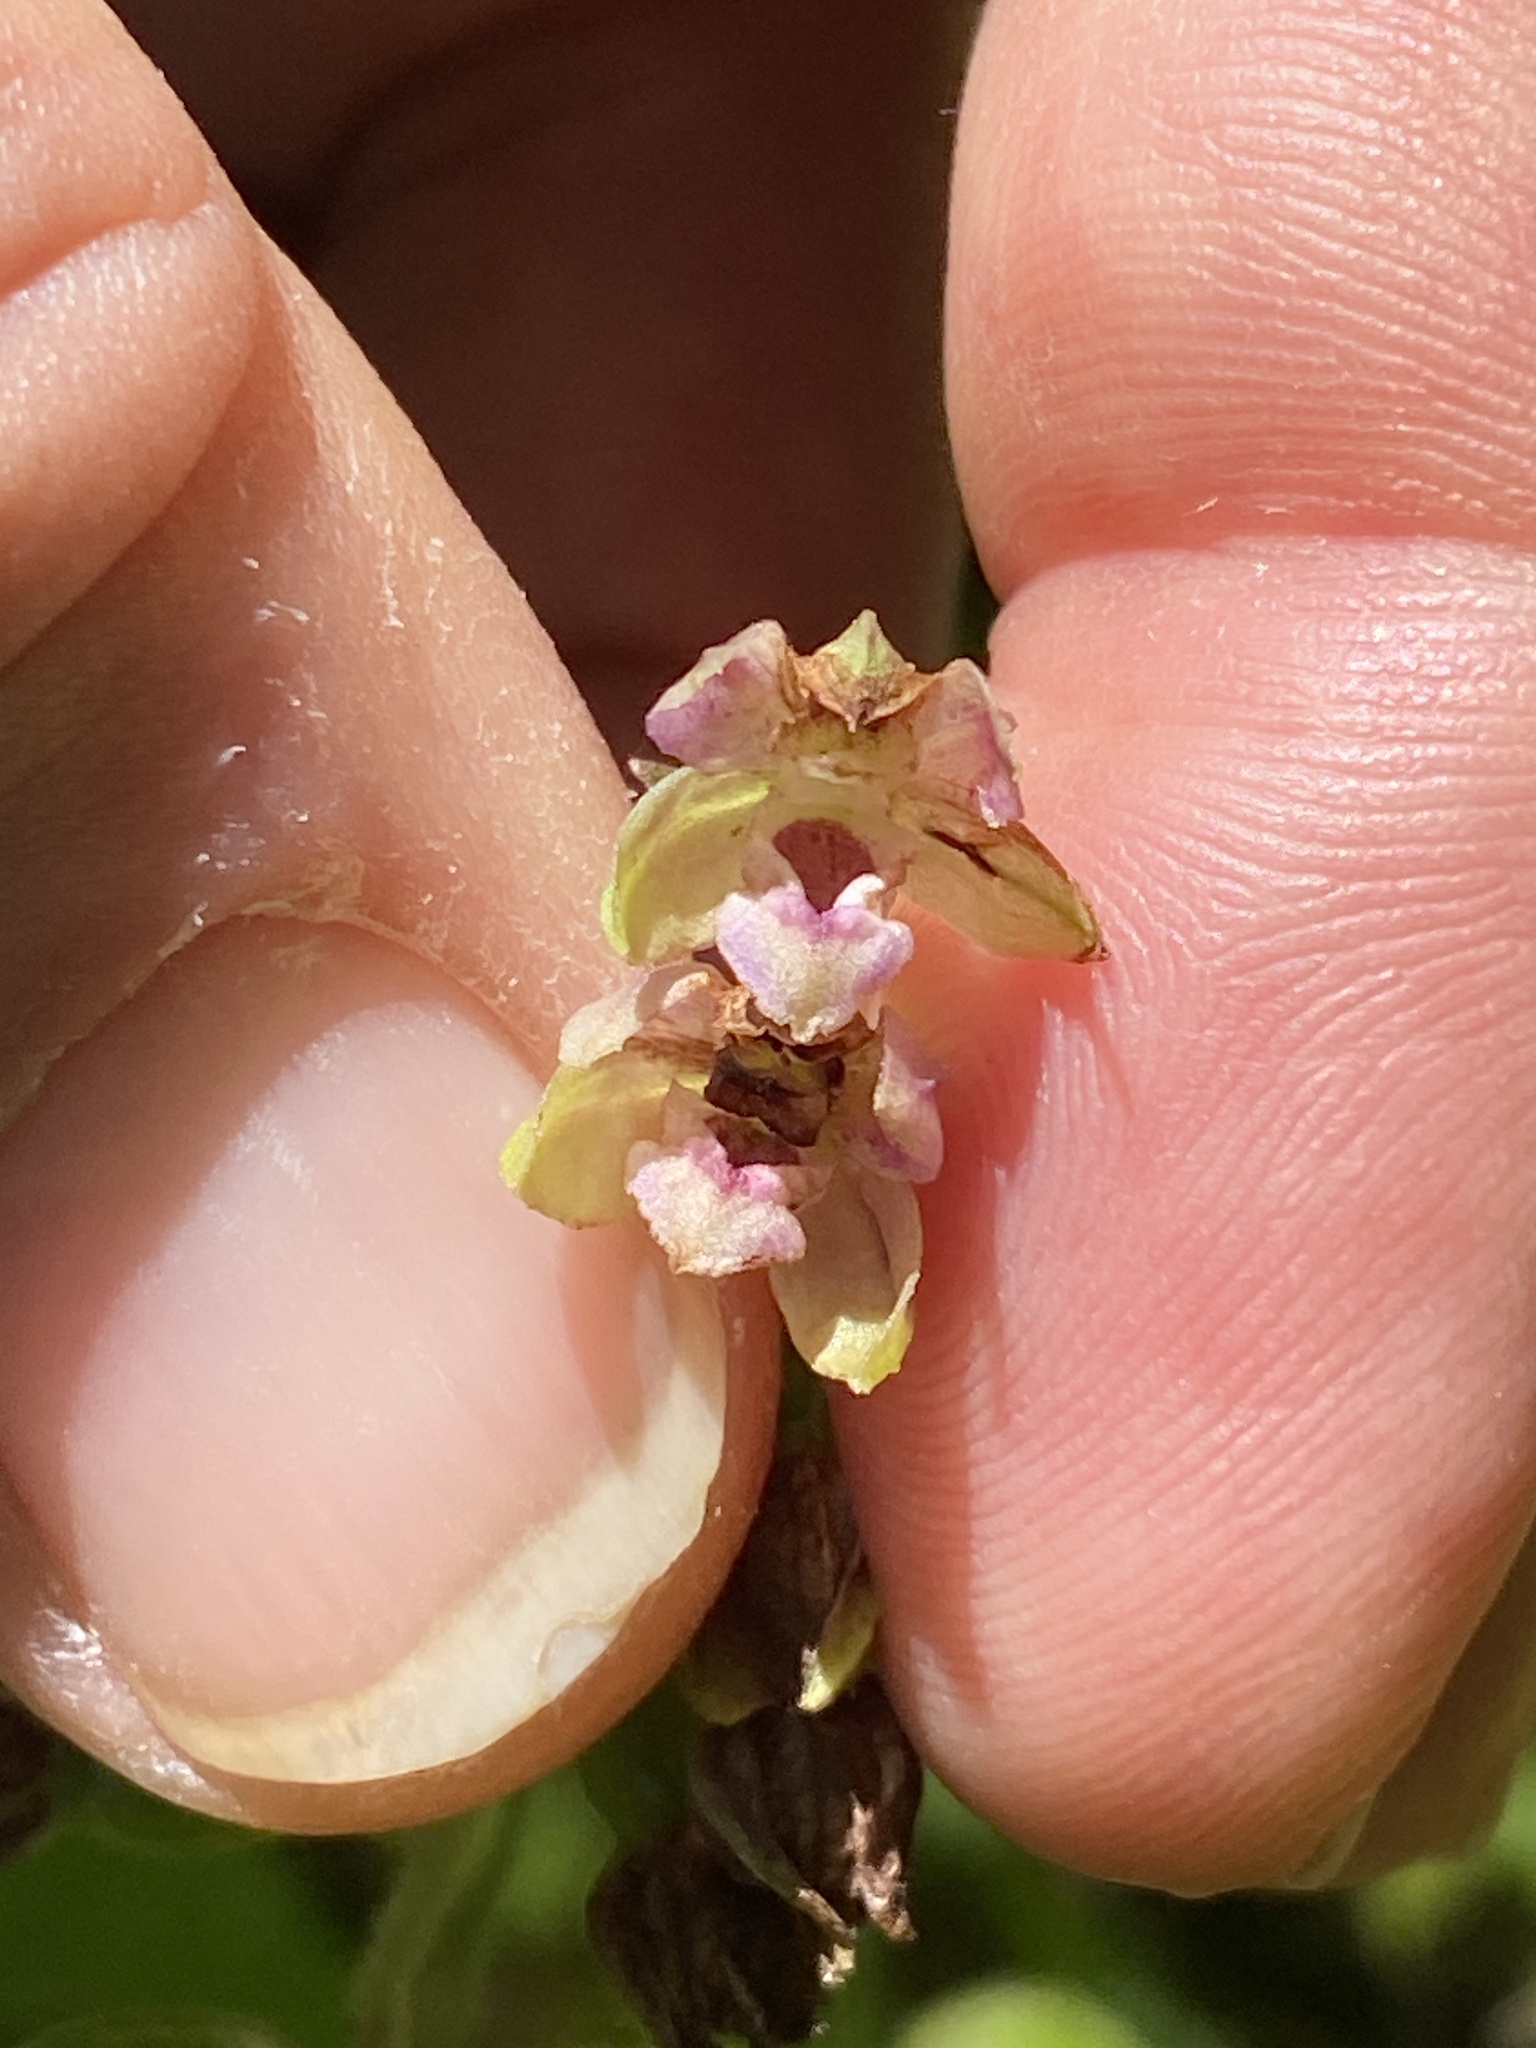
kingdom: Plantae
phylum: Tracheophyta
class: Liliopsida
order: Asparagales
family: Orchidaceae
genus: Epipactis
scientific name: Epipactis helleborine
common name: Broad-leaved helleborine
